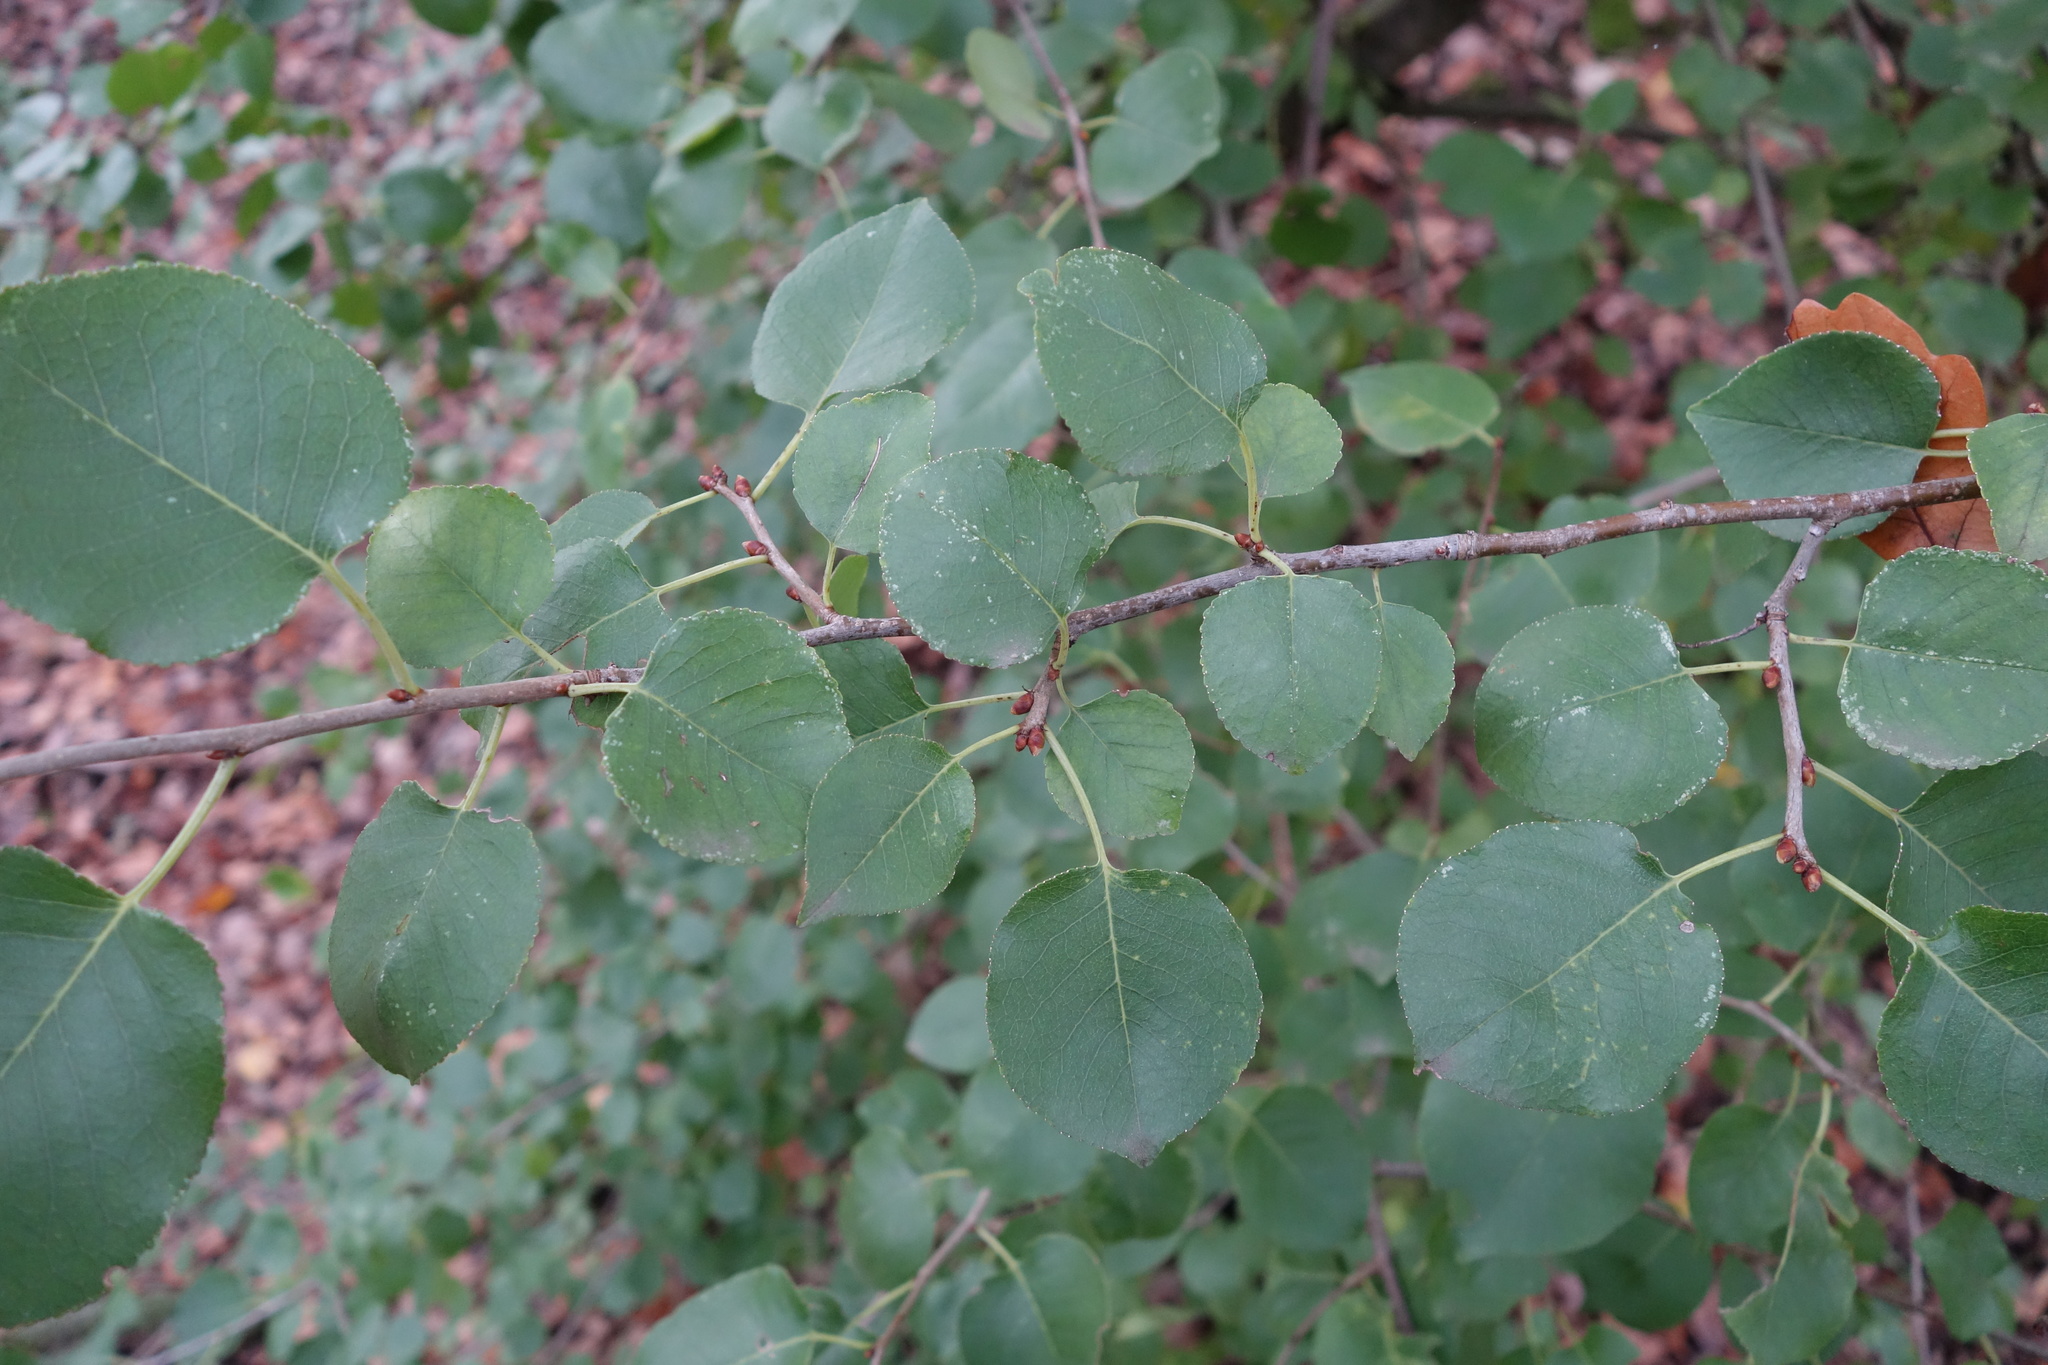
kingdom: Plantae
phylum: Tracheophyta
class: Magnoliopsida
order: Rosales
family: Rosaceae
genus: Prunus
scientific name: Prunus mahaleb
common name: Mahaleb cherry
